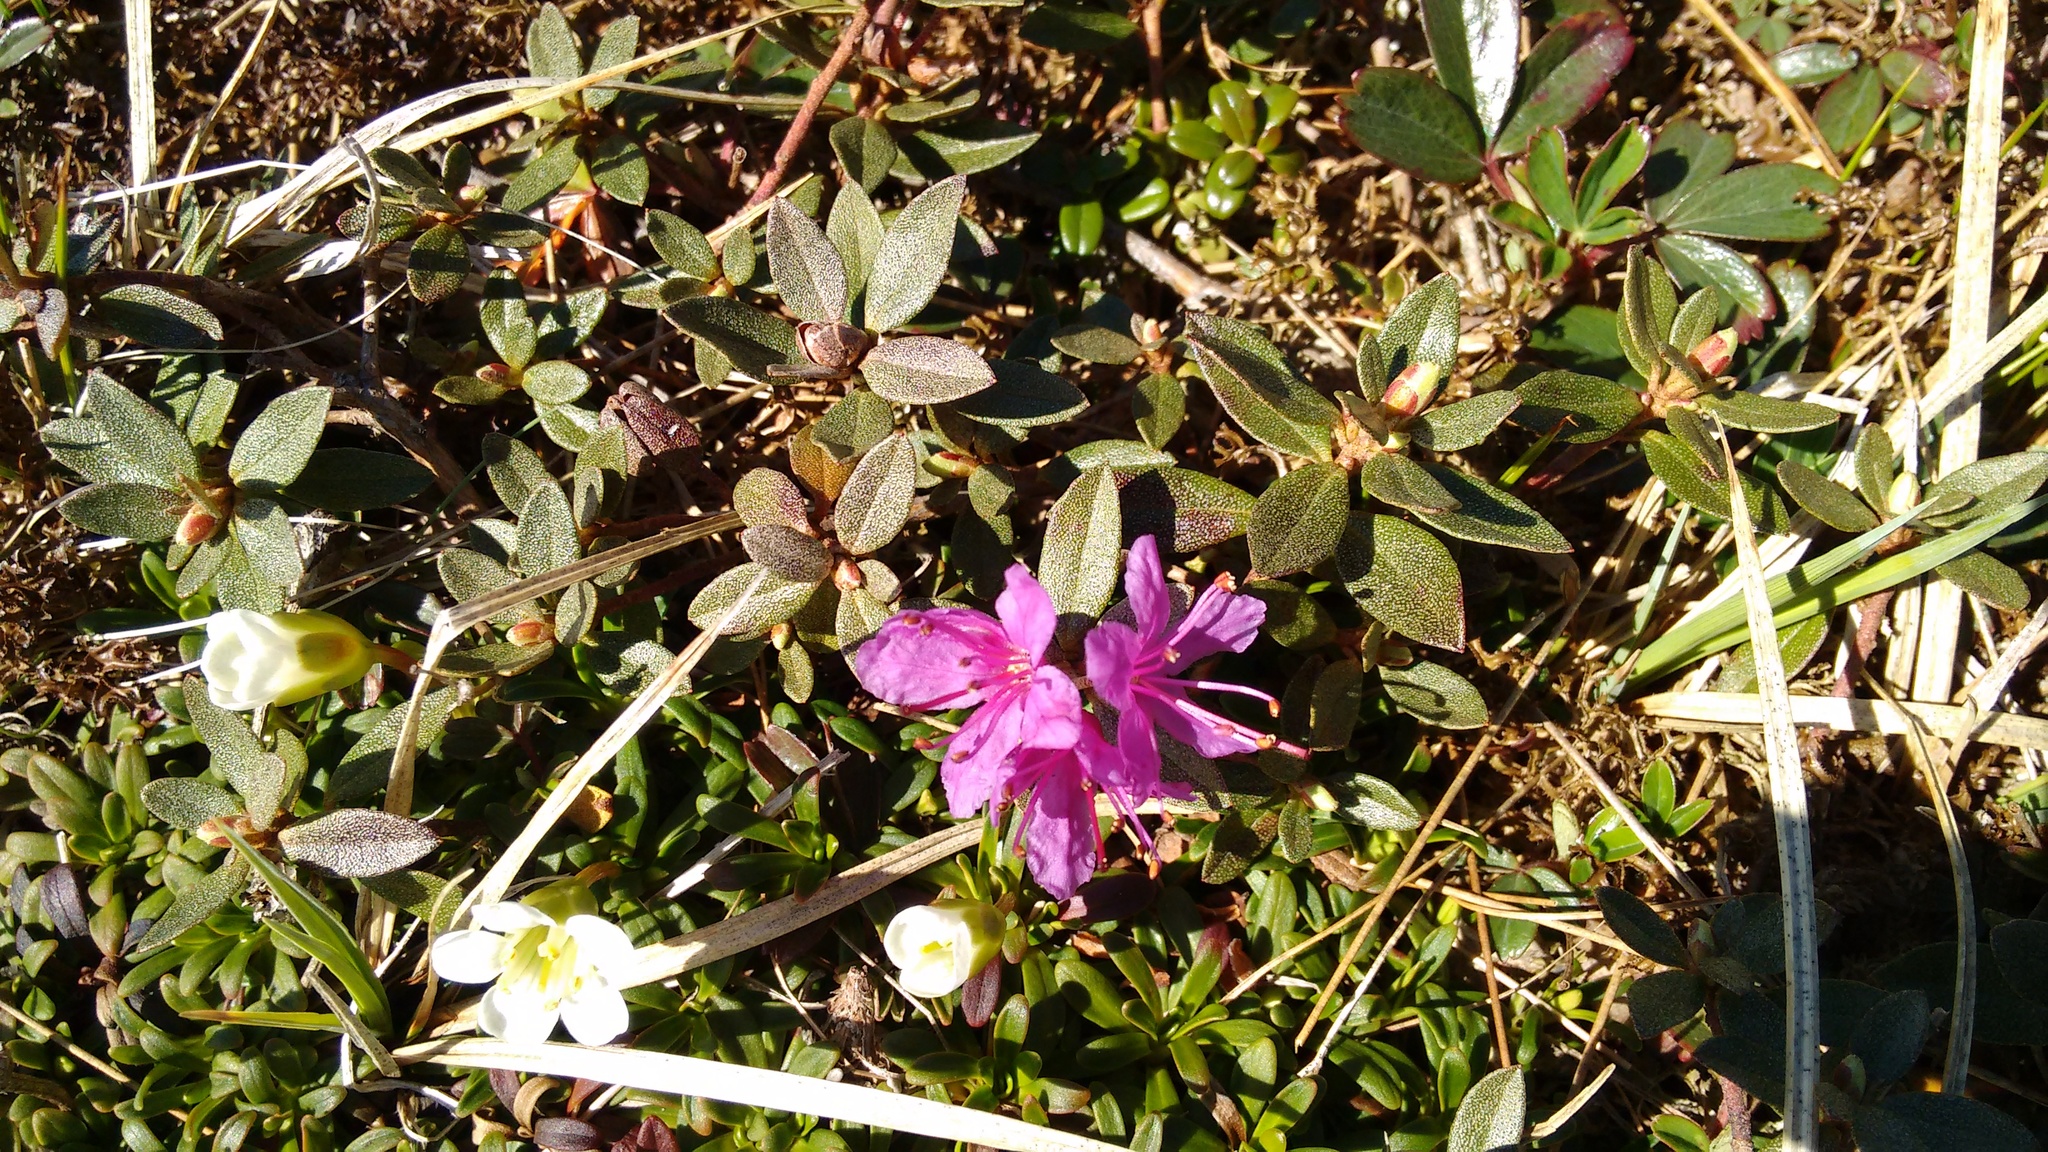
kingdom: Plantae
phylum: Tracheophyta
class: Magnoliopsida
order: Ericales
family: Ericaceae
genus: Rhododendron
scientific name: Rhododendron lapponicum
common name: Lapland rhododendron
